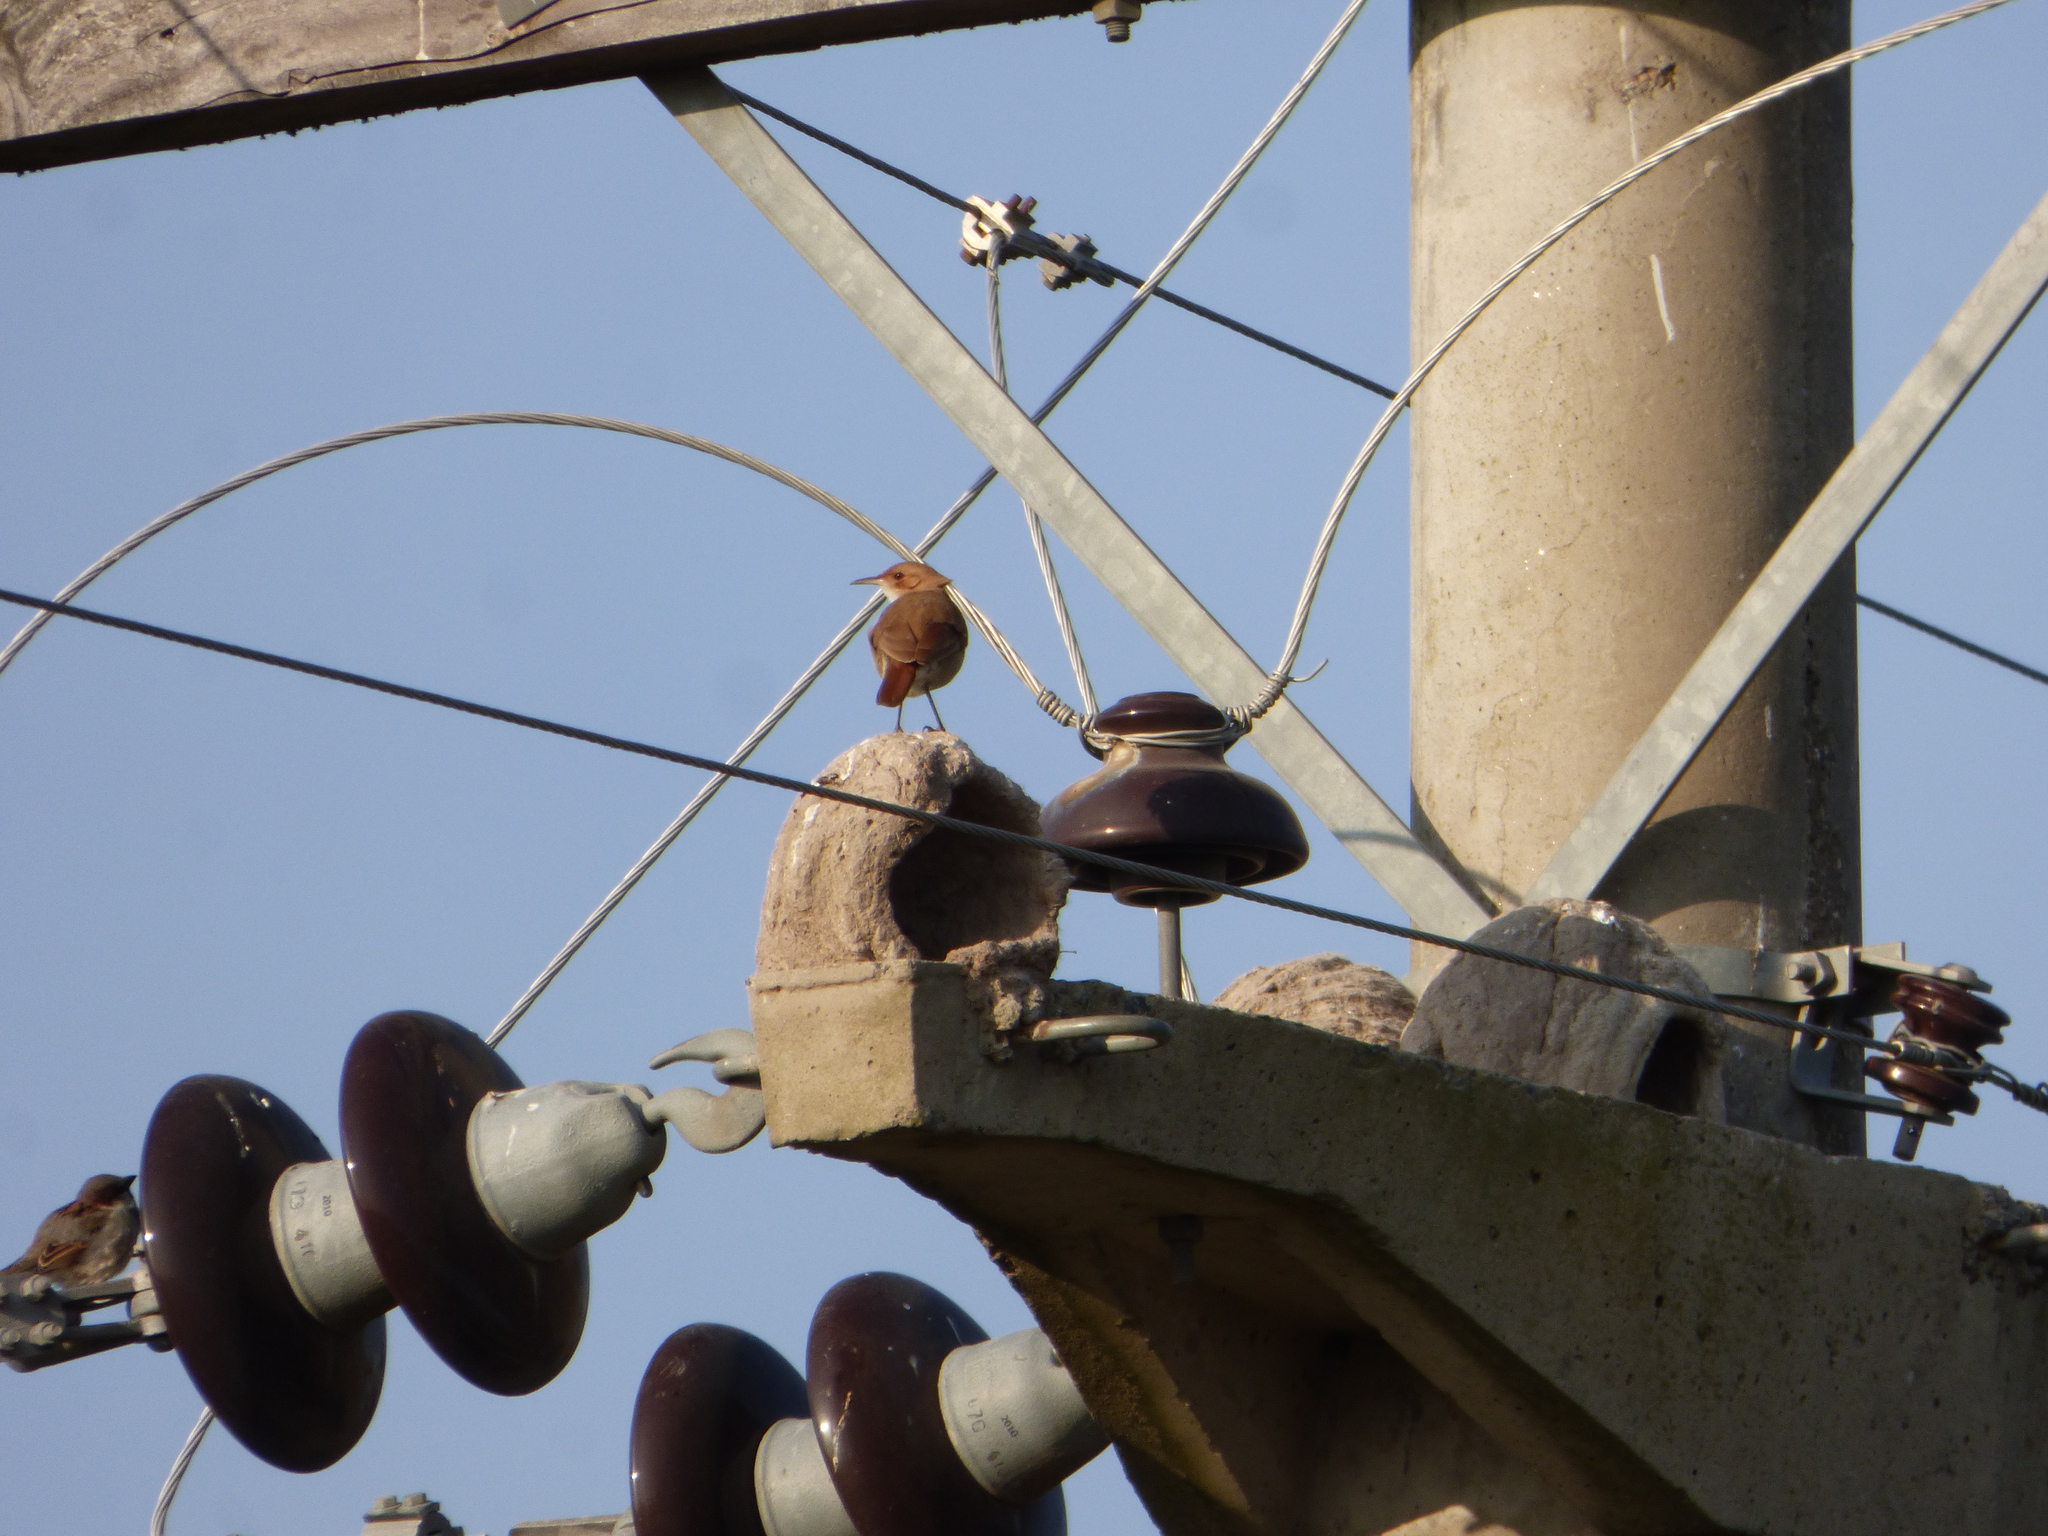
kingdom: Animalia
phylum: Chordata
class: Aves
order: Passeriformes
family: Furnariidae
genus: Furnarius
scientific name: Furnarius rufus
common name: Rufous hornero
